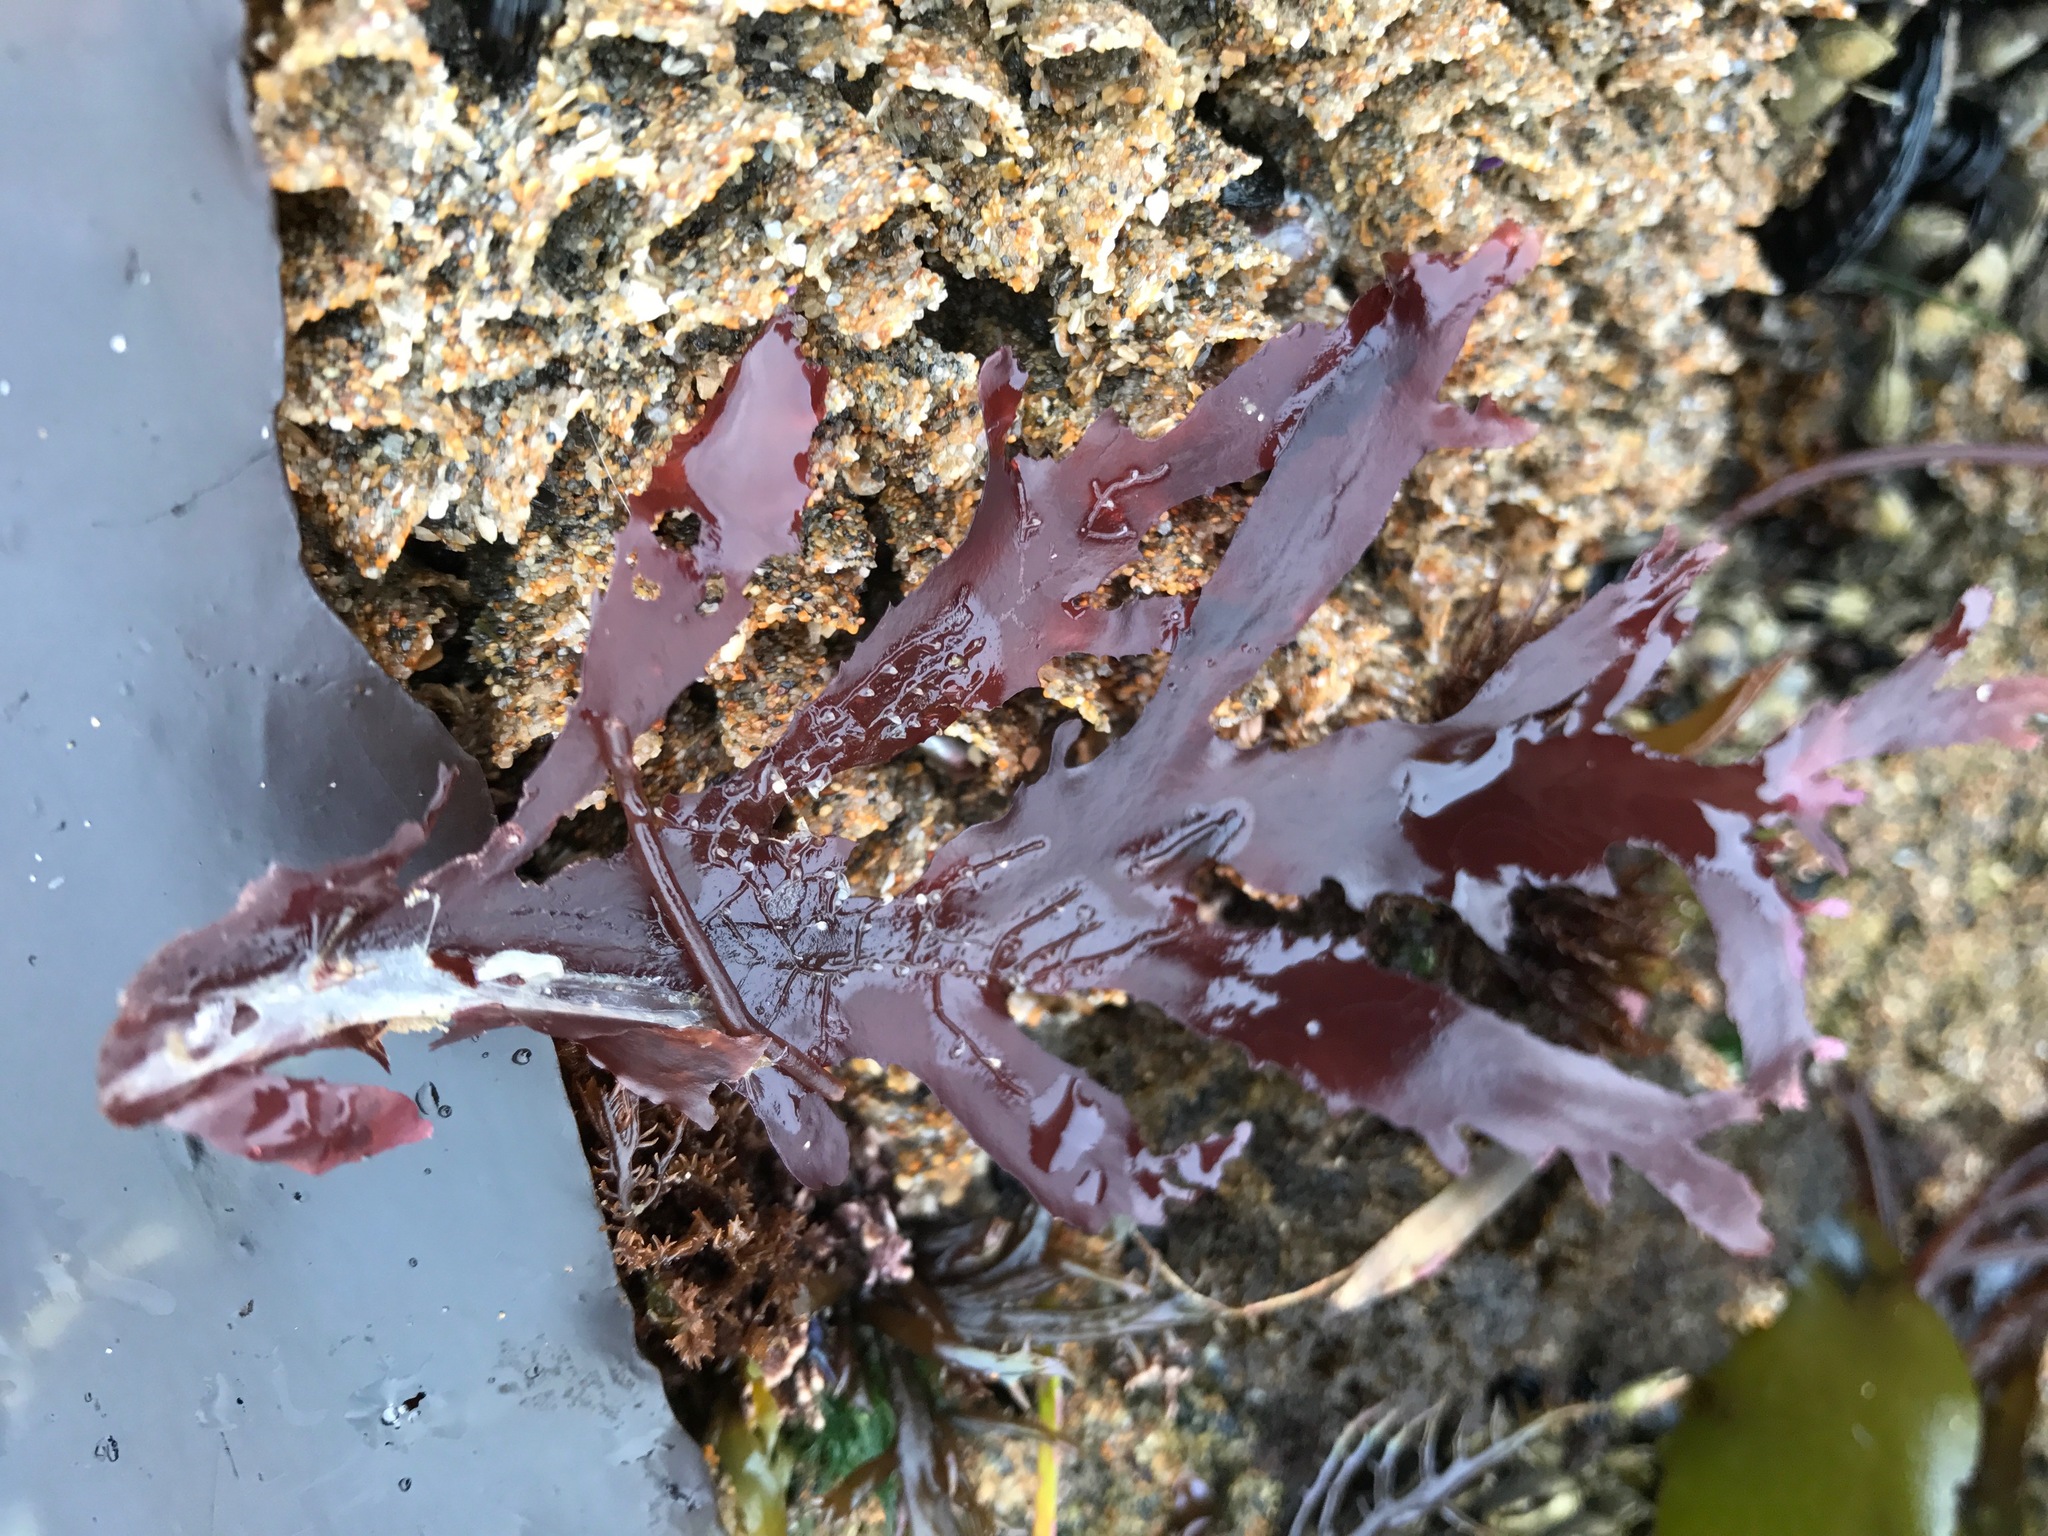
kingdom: Plantae
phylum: Rhodophyta
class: Florideophyceae
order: Ceramiales
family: Delesseriaceae
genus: Nienburgia
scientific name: Nienburgia andersoniana
